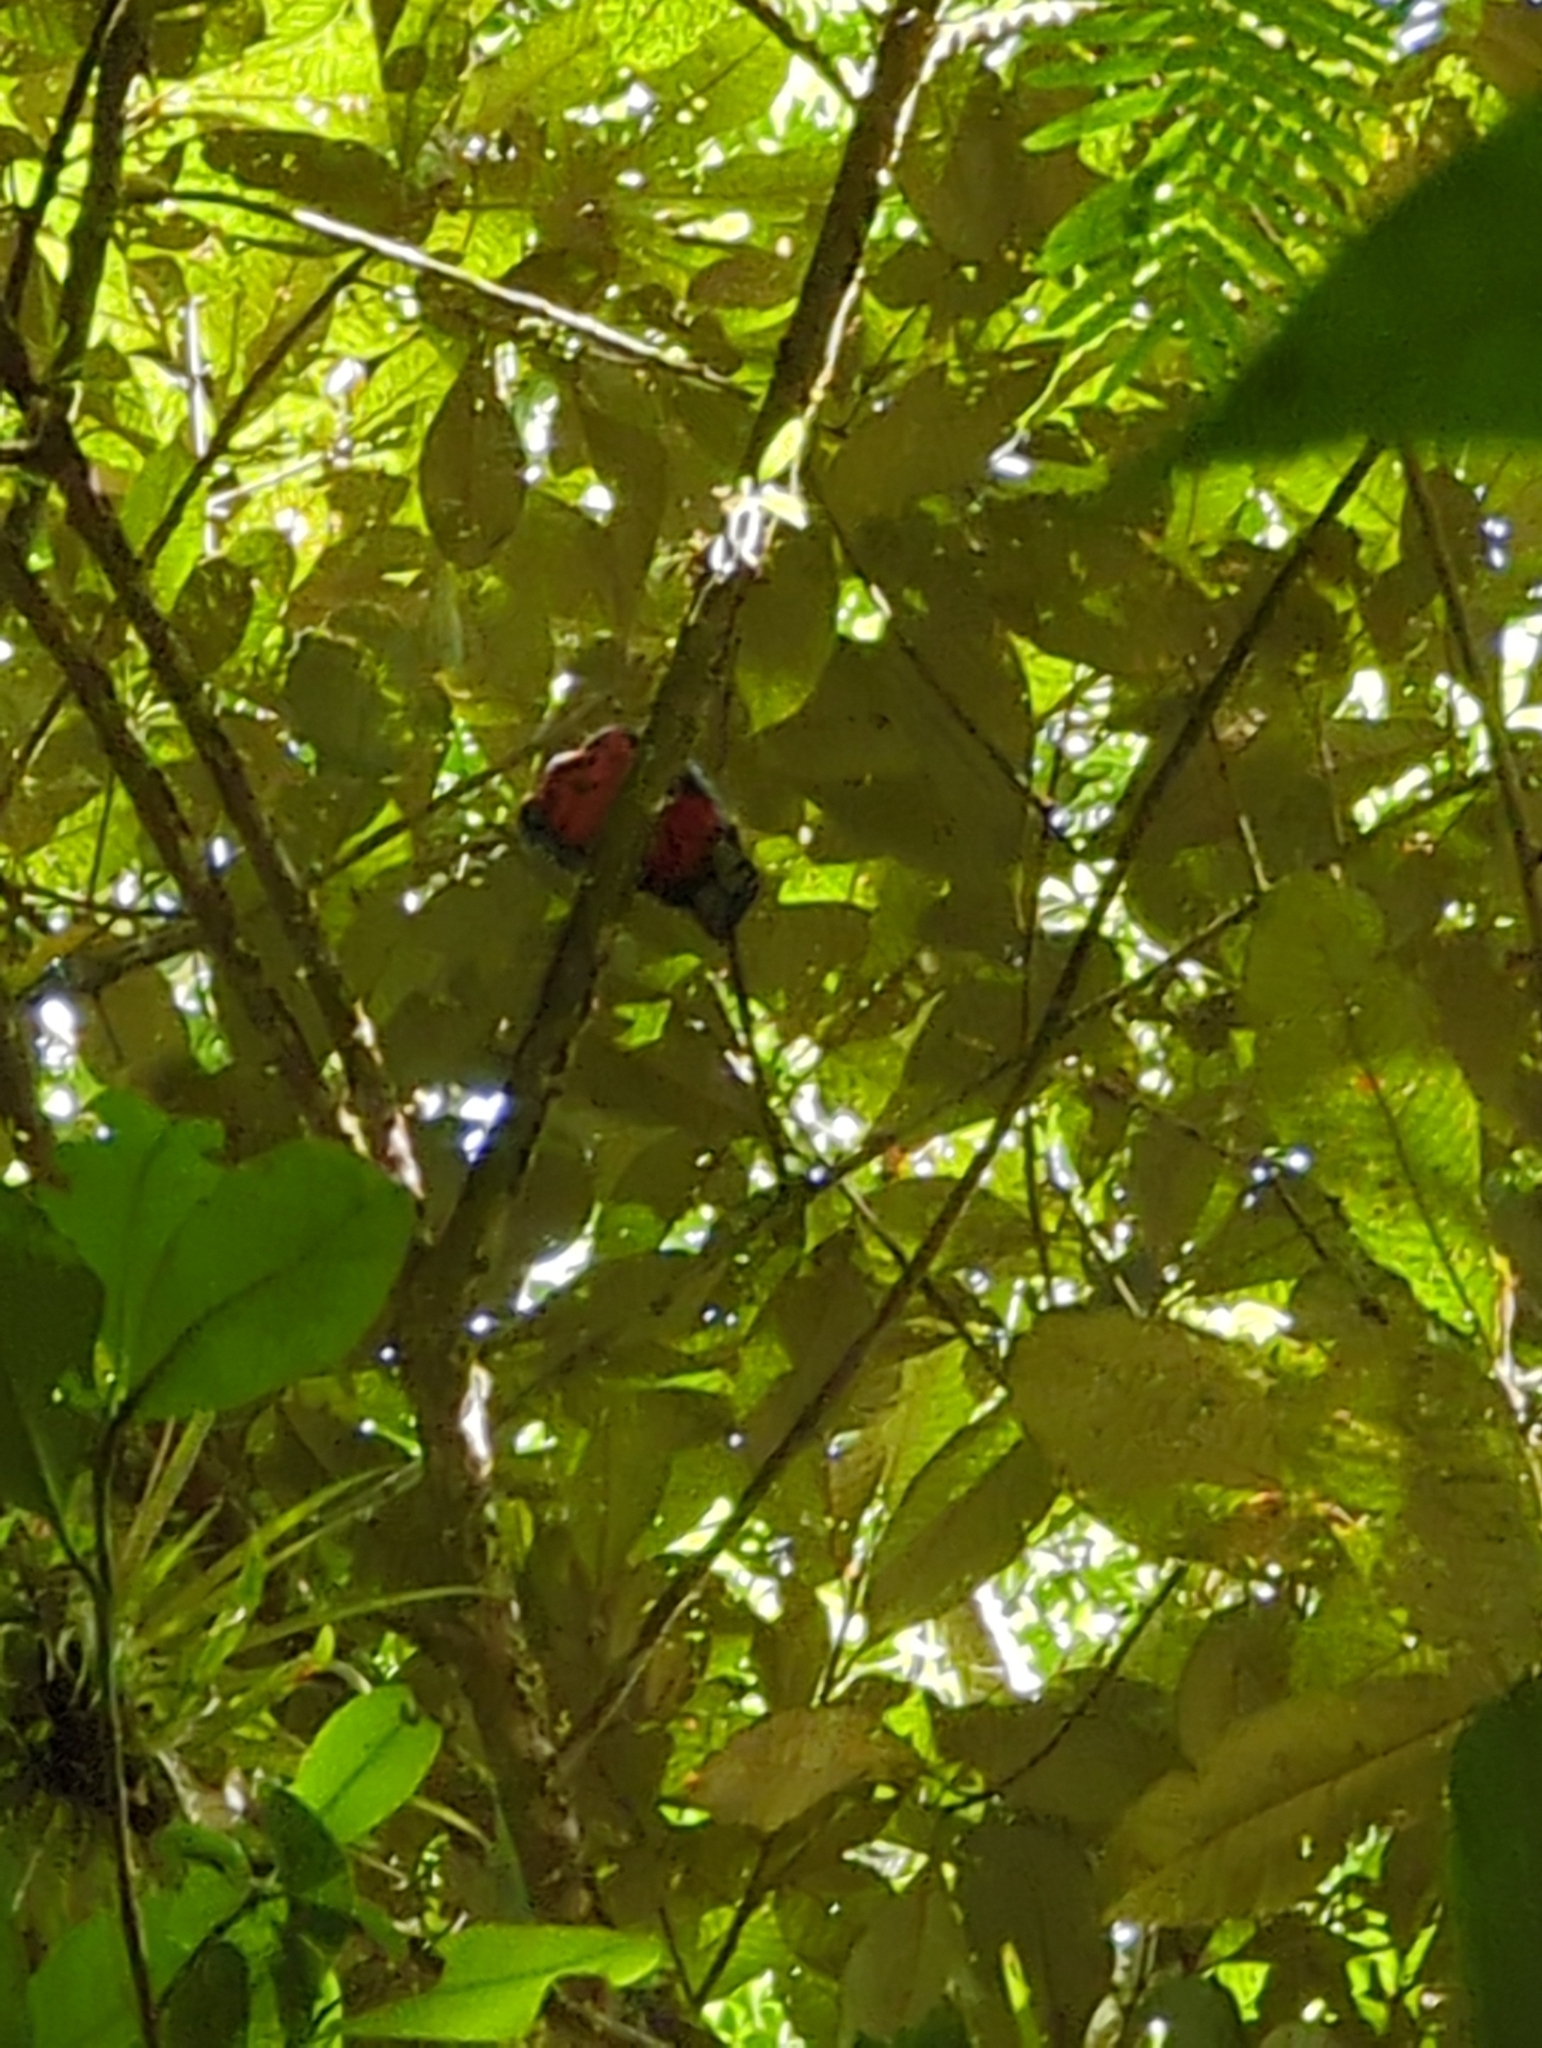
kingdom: Animalia
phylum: Chordata
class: Aves
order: Trogoniformes
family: Trogonidae
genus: Trogon
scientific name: Trogon massena
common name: Slaty-tailed trogon
